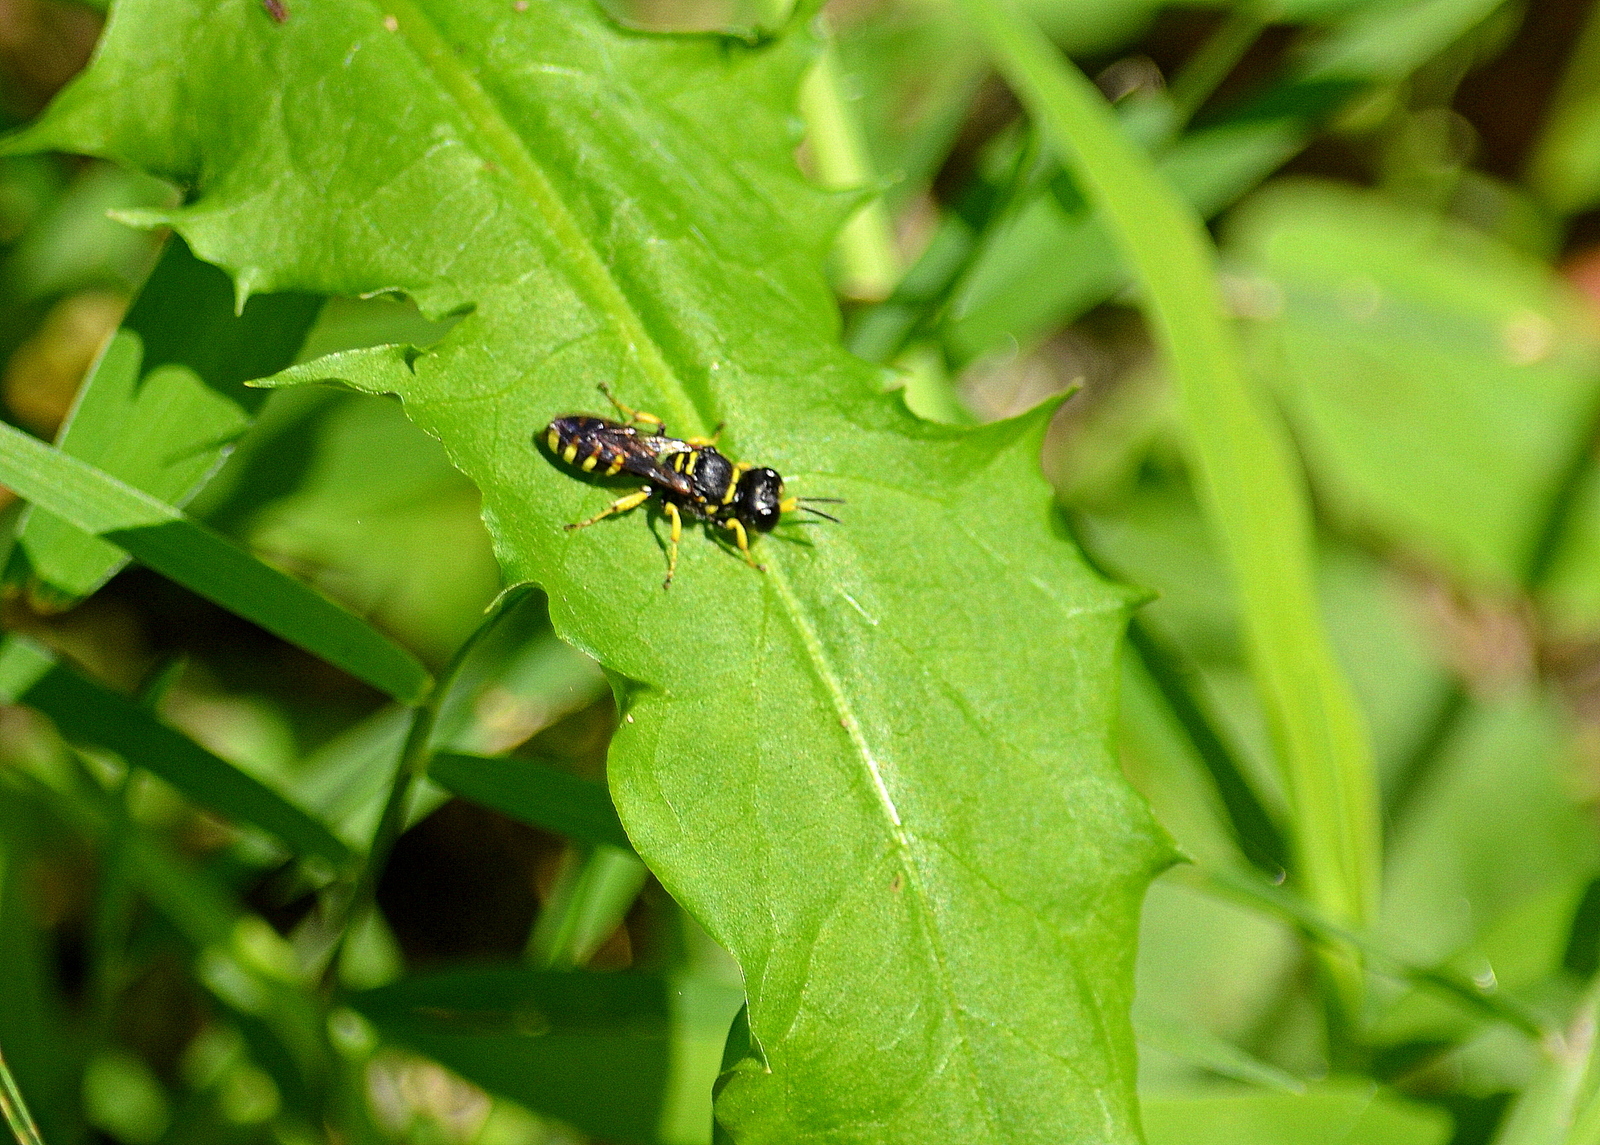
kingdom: Animalia
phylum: Arthropoda
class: Insecta
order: Hymenoptera
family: Crabronidae
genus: Ectemnius
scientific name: Ectemnius lapidarius
